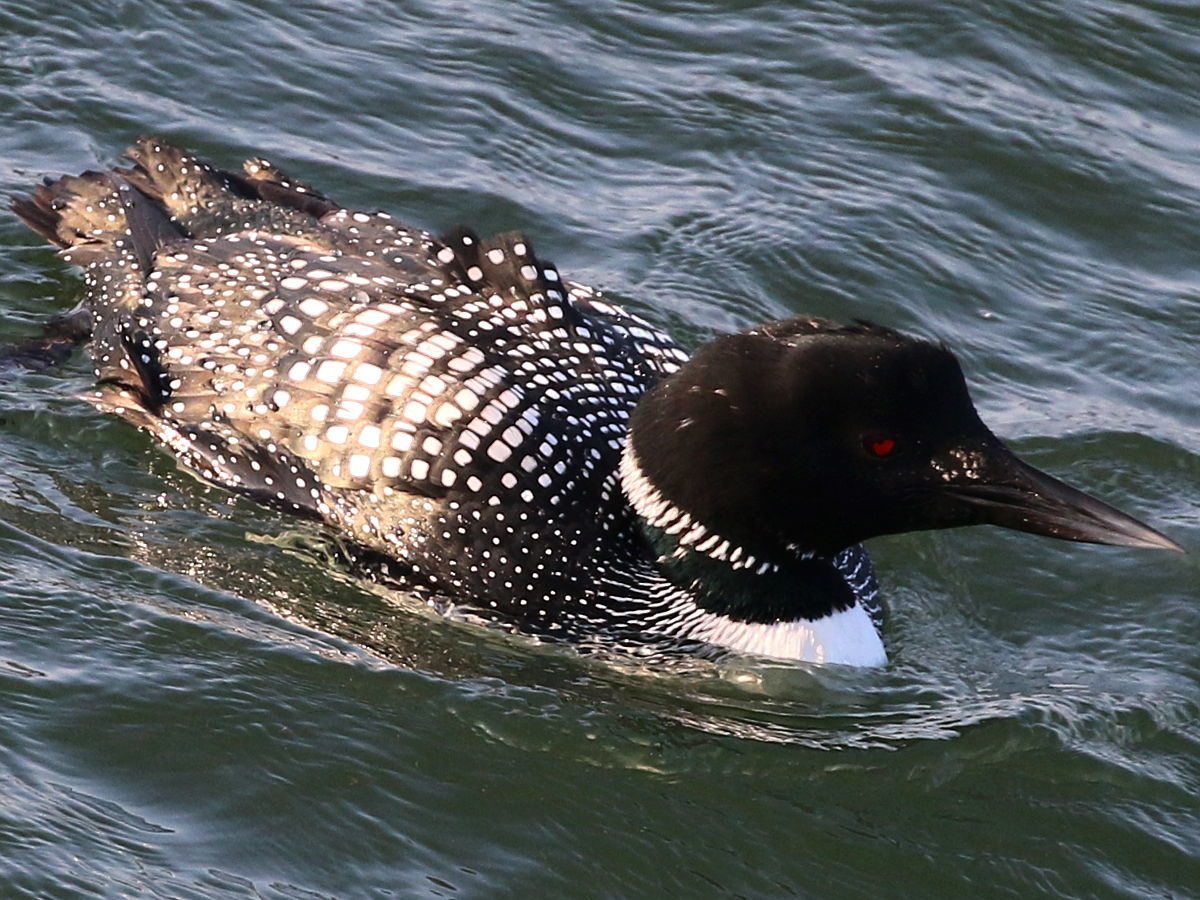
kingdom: Animalia
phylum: Chordata
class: Aves
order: Gaviiformes
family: Gaviidae
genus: Gavia
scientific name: Gavia immer
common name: Common loon
